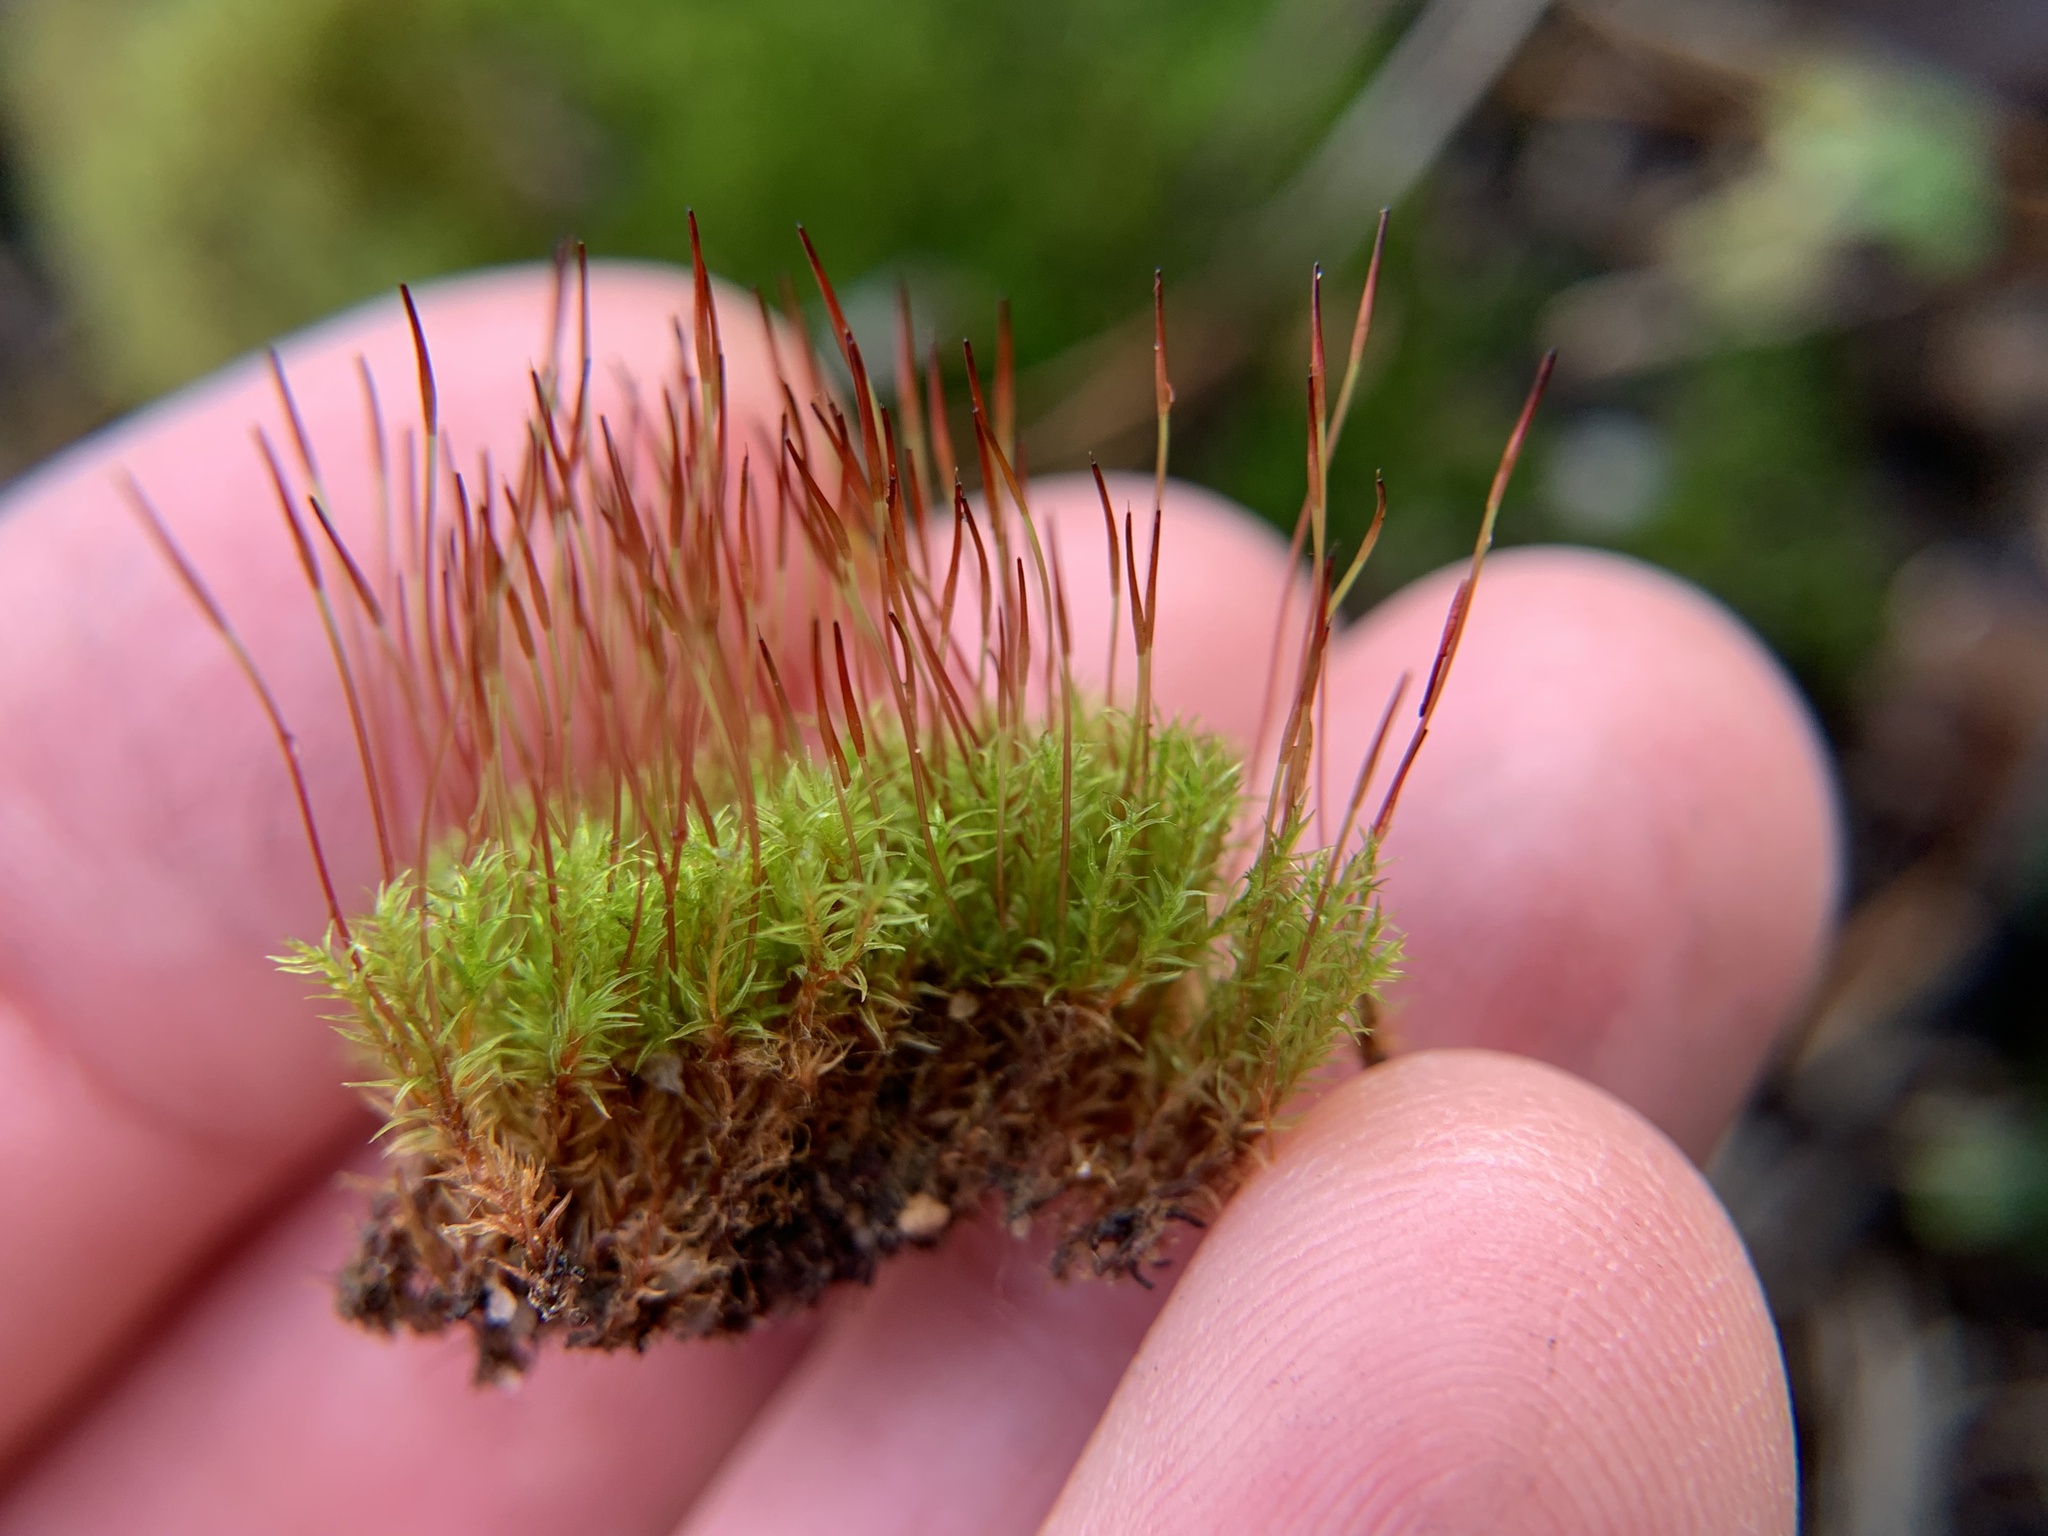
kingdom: Plantae
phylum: Bryophyta
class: Bryopsida
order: Dicranales
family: Ditrichaceae
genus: Ceratodon
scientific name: Ceratodon purpureus
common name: Redshank
